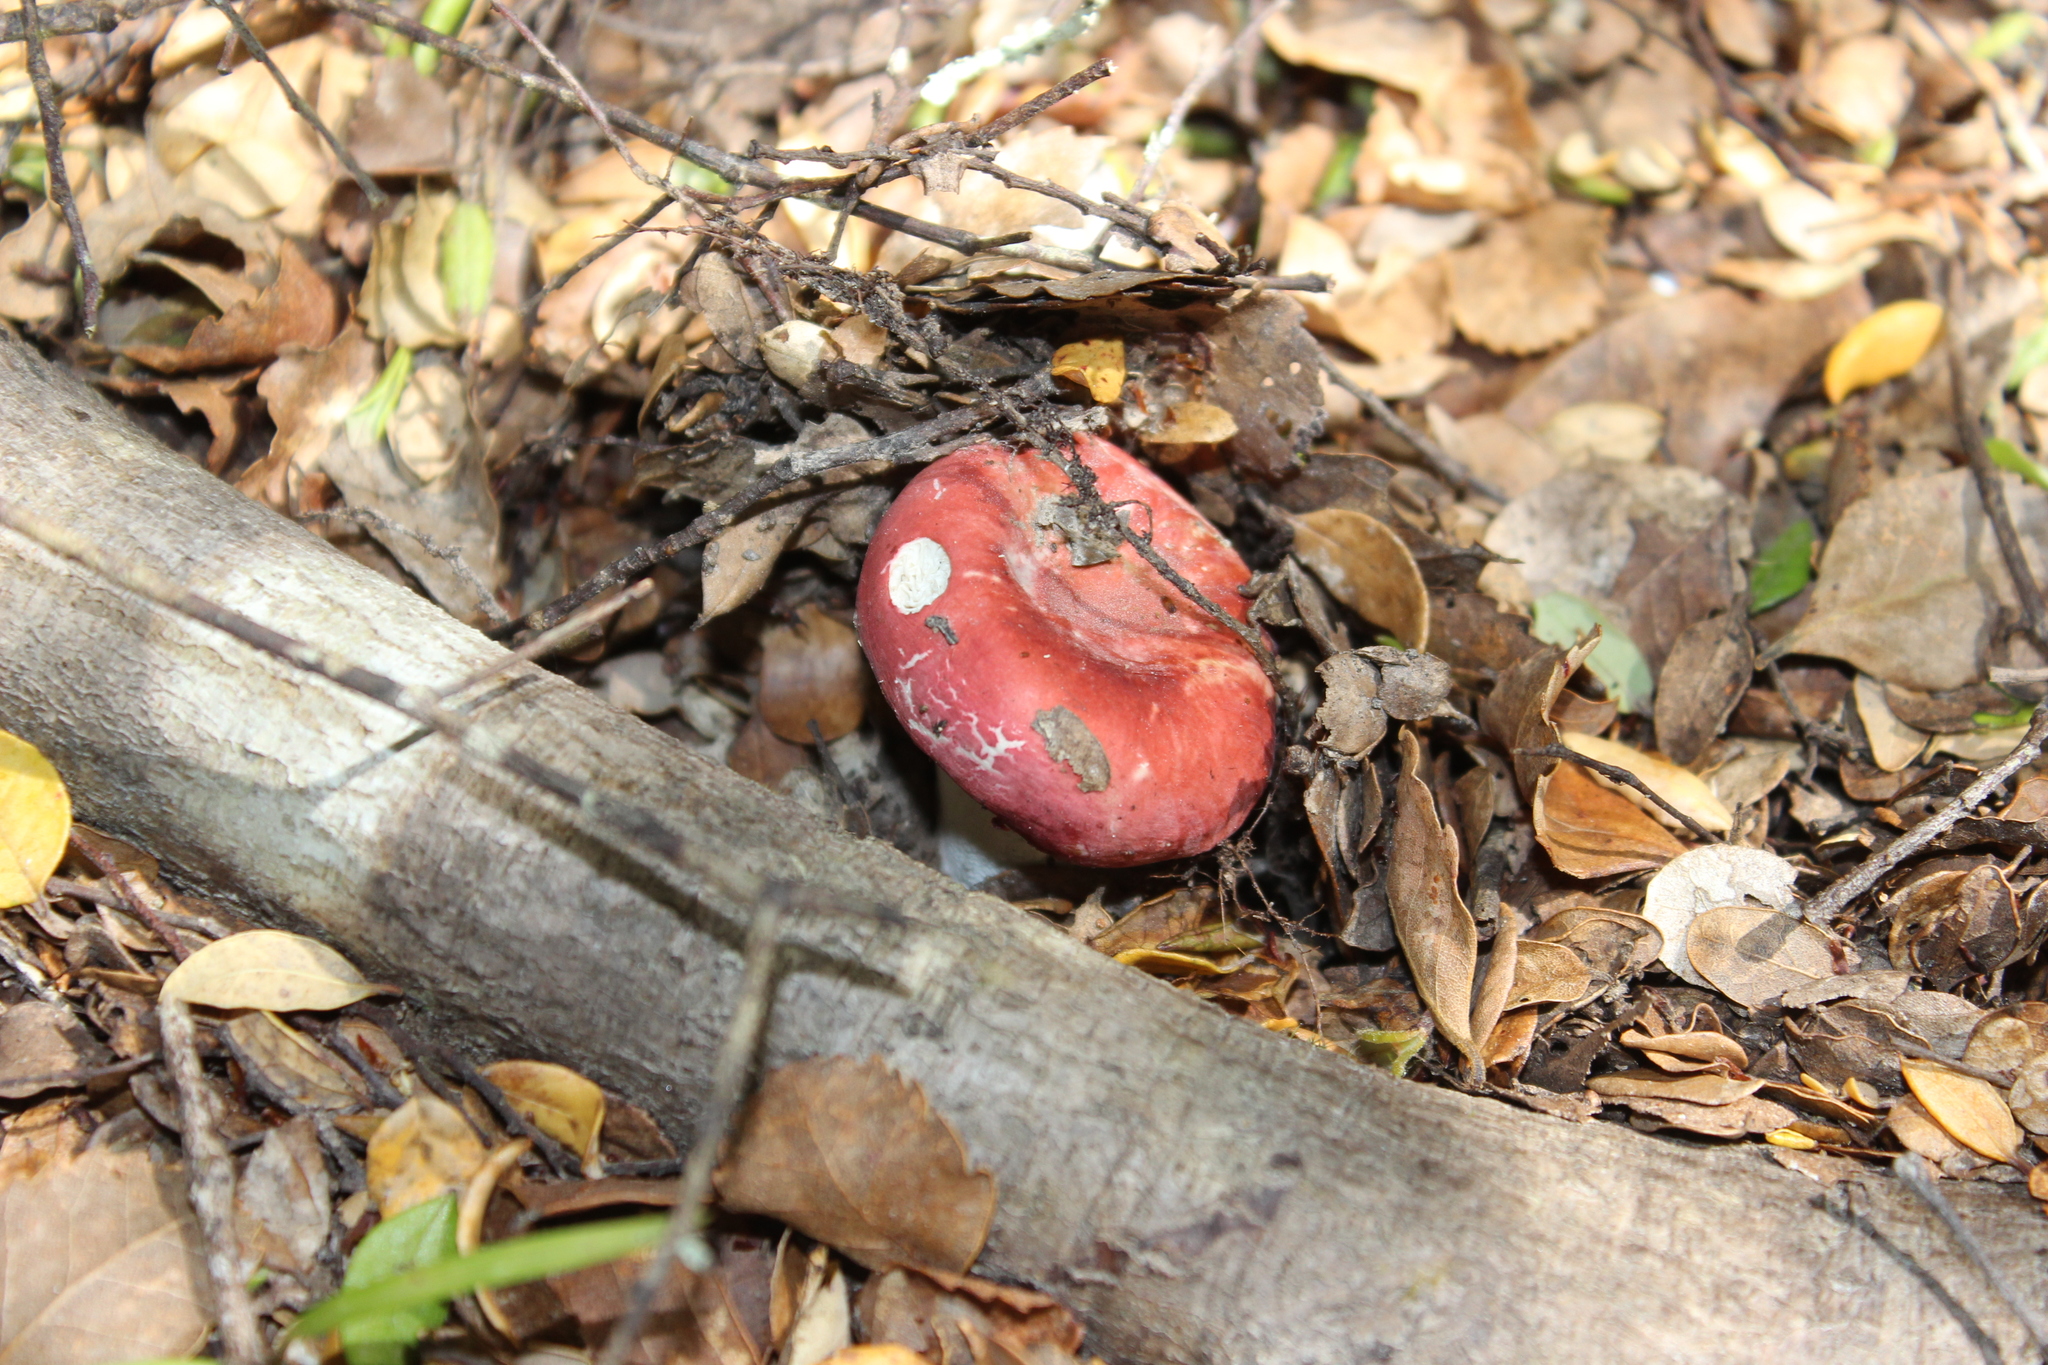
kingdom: Fungi
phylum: Basidiomycota
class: Agaricomycetes
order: Russulales
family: Russulaceae
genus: Russula
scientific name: Russula kermesina
